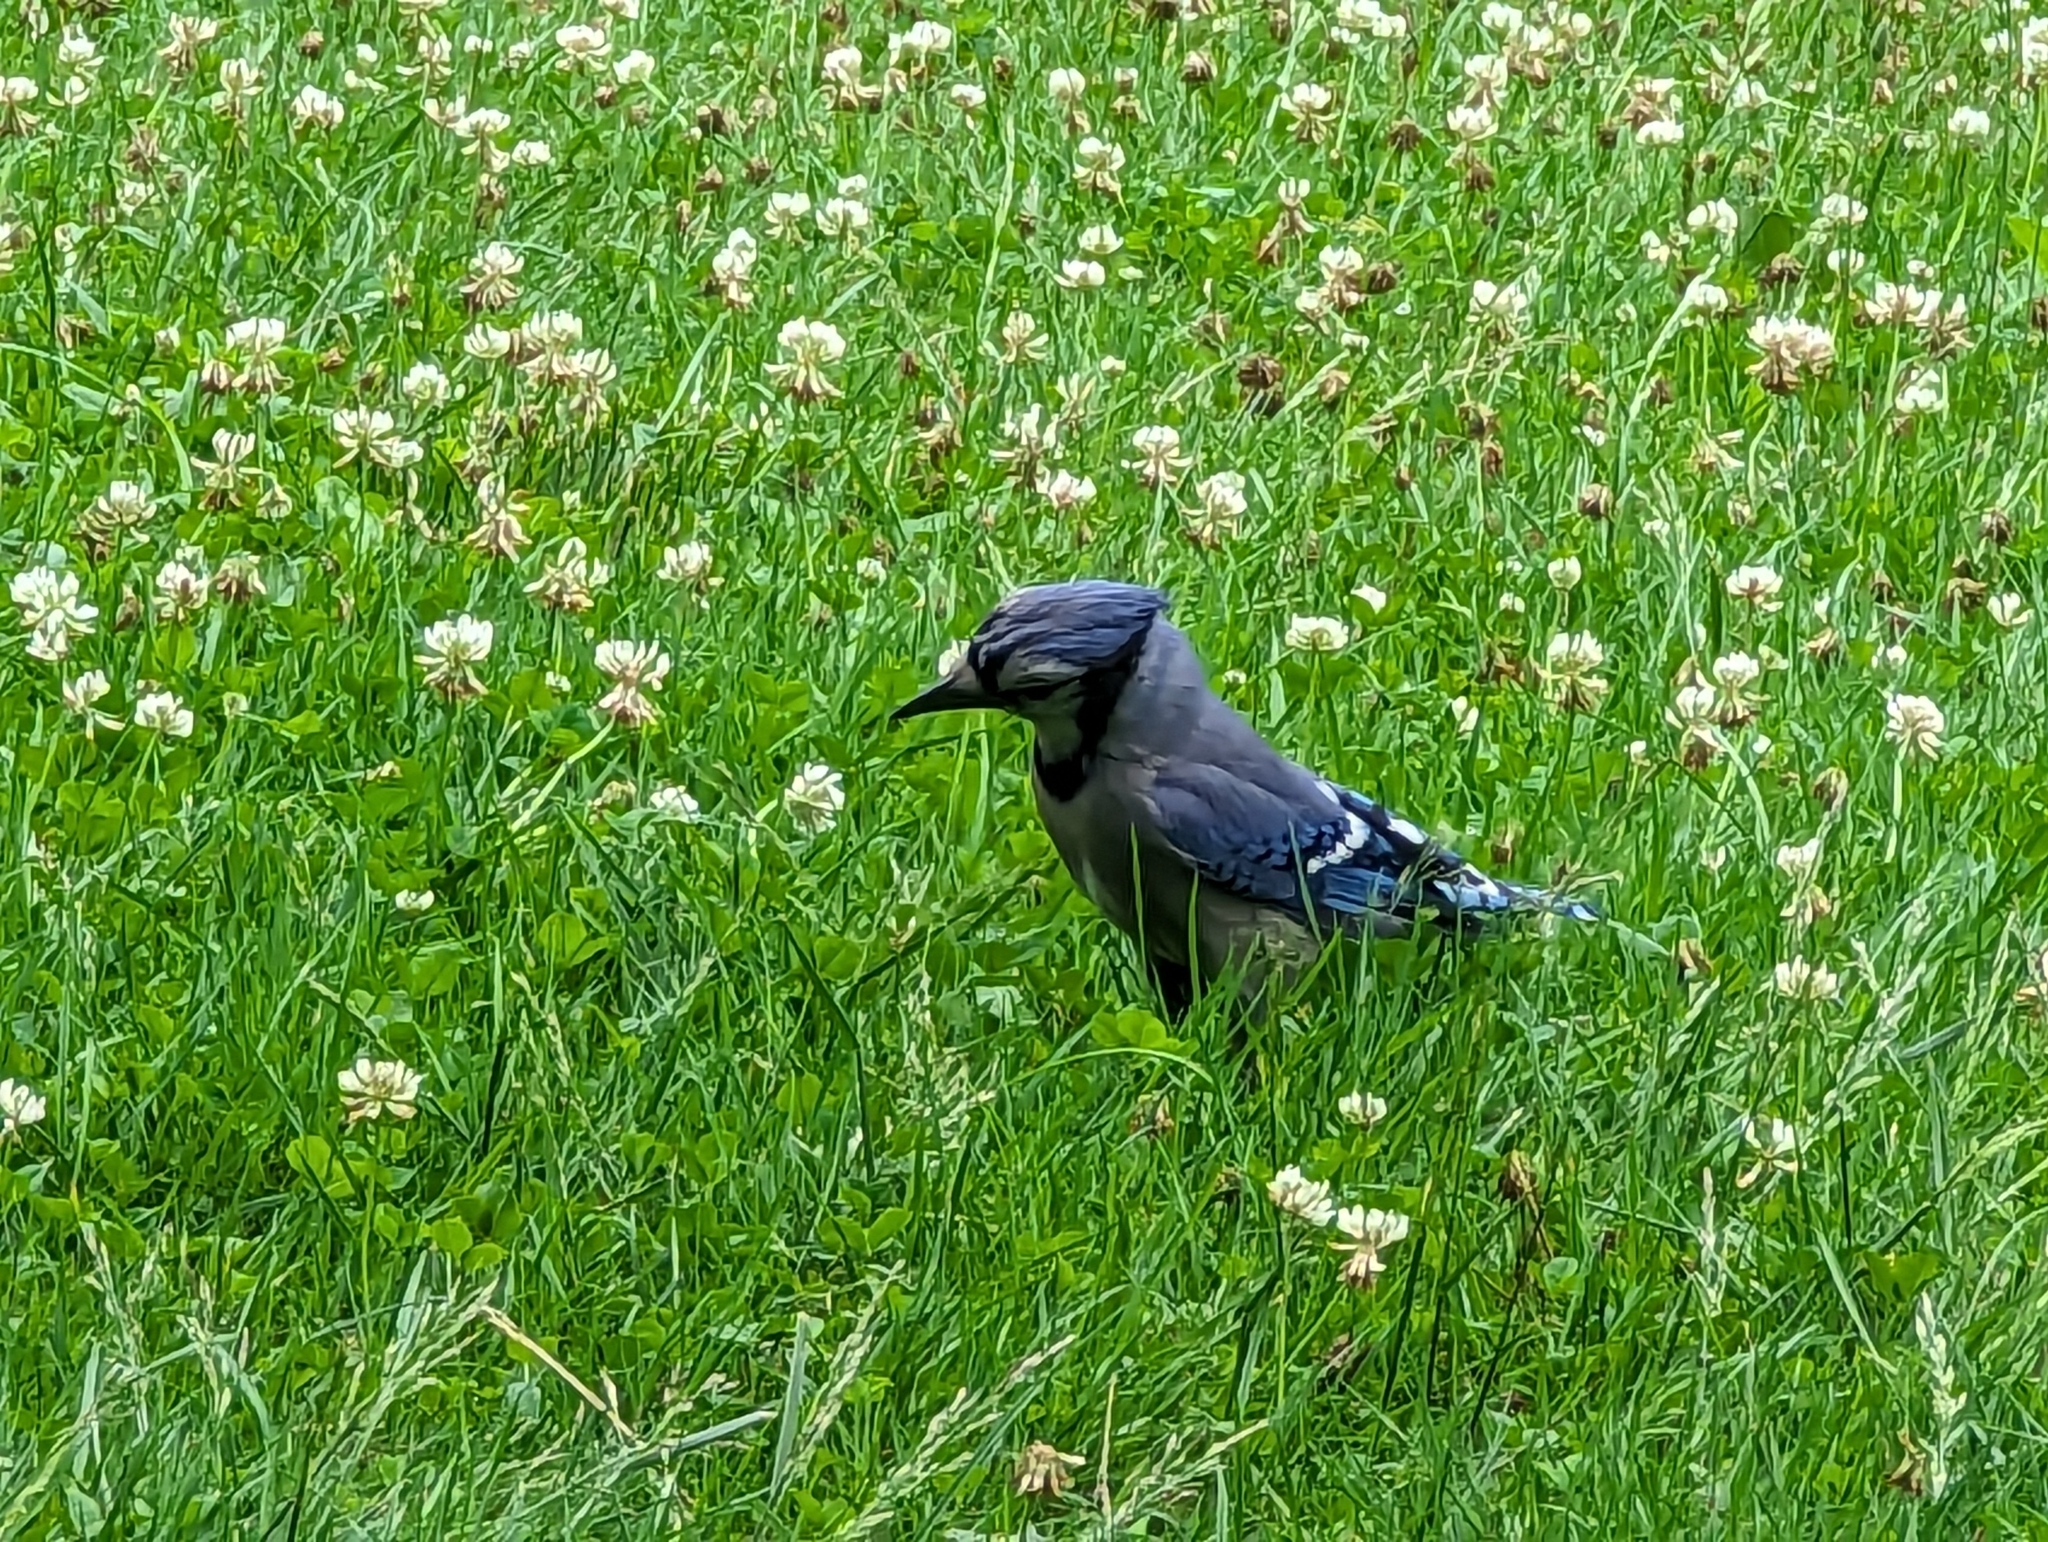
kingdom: Animalia
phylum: Chordata
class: Aves
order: Passeriformes
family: Corvidae
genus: Cyanocitta
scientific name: Cyanocitta cristata
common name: Blue jay
